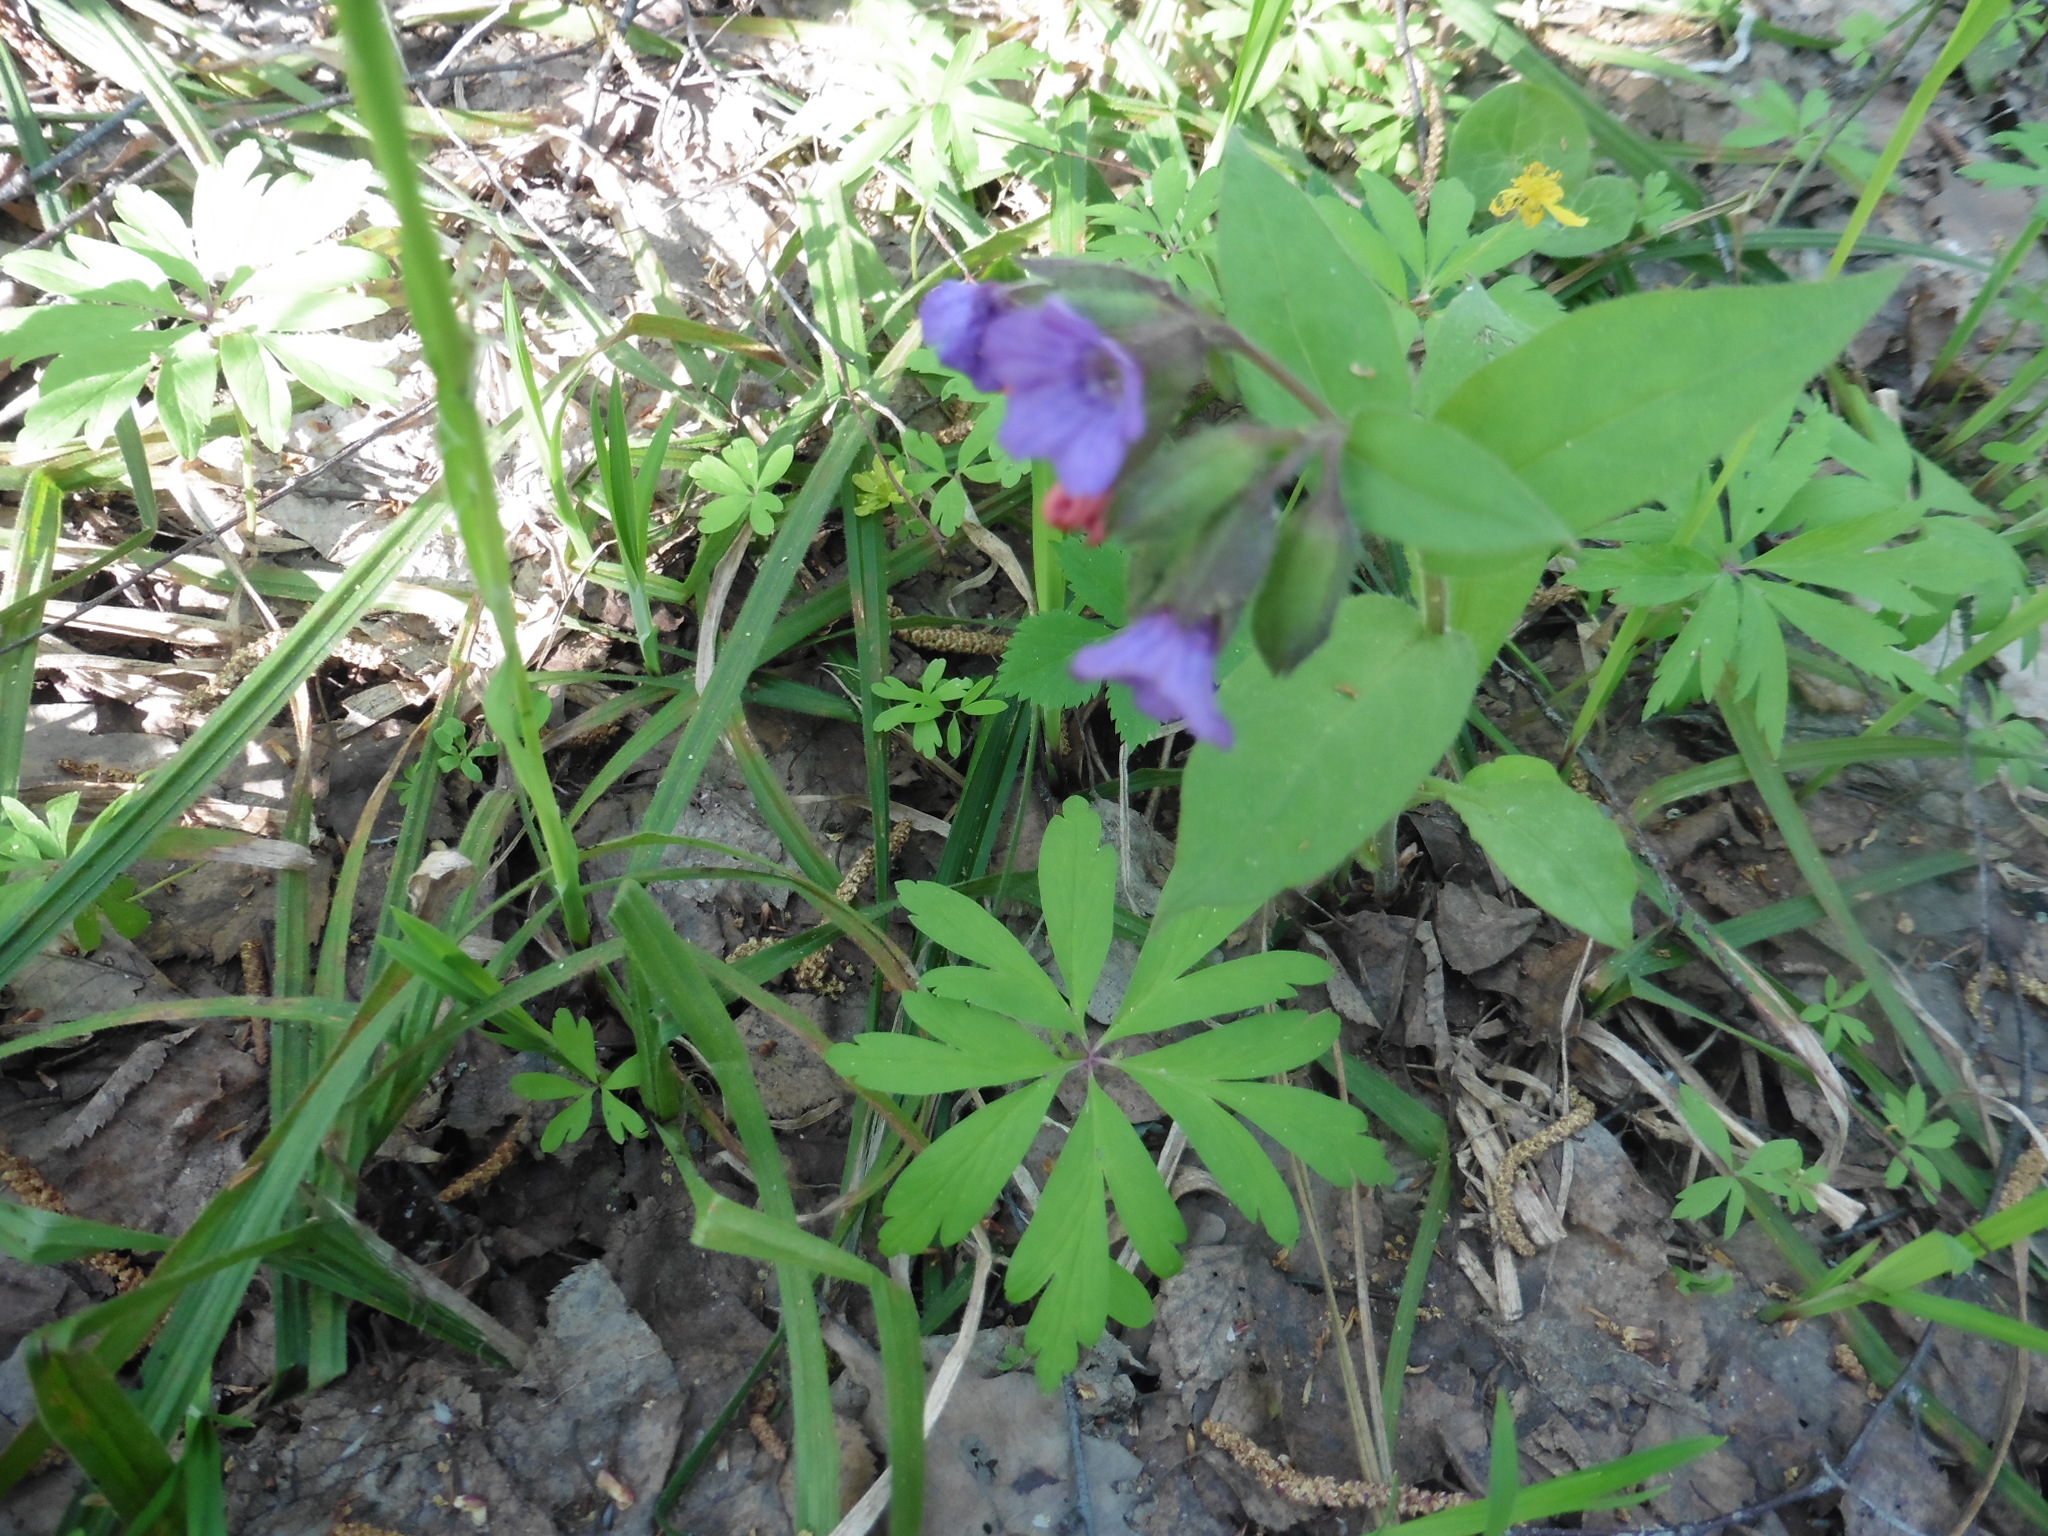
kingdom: Plantae
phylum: Tracheophyta
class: Magnoliopsida
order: Boraginales
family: Boraginaceae
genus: Pulmonaria
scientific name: Pulmonaria obscura
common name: Suffolk lungwort
